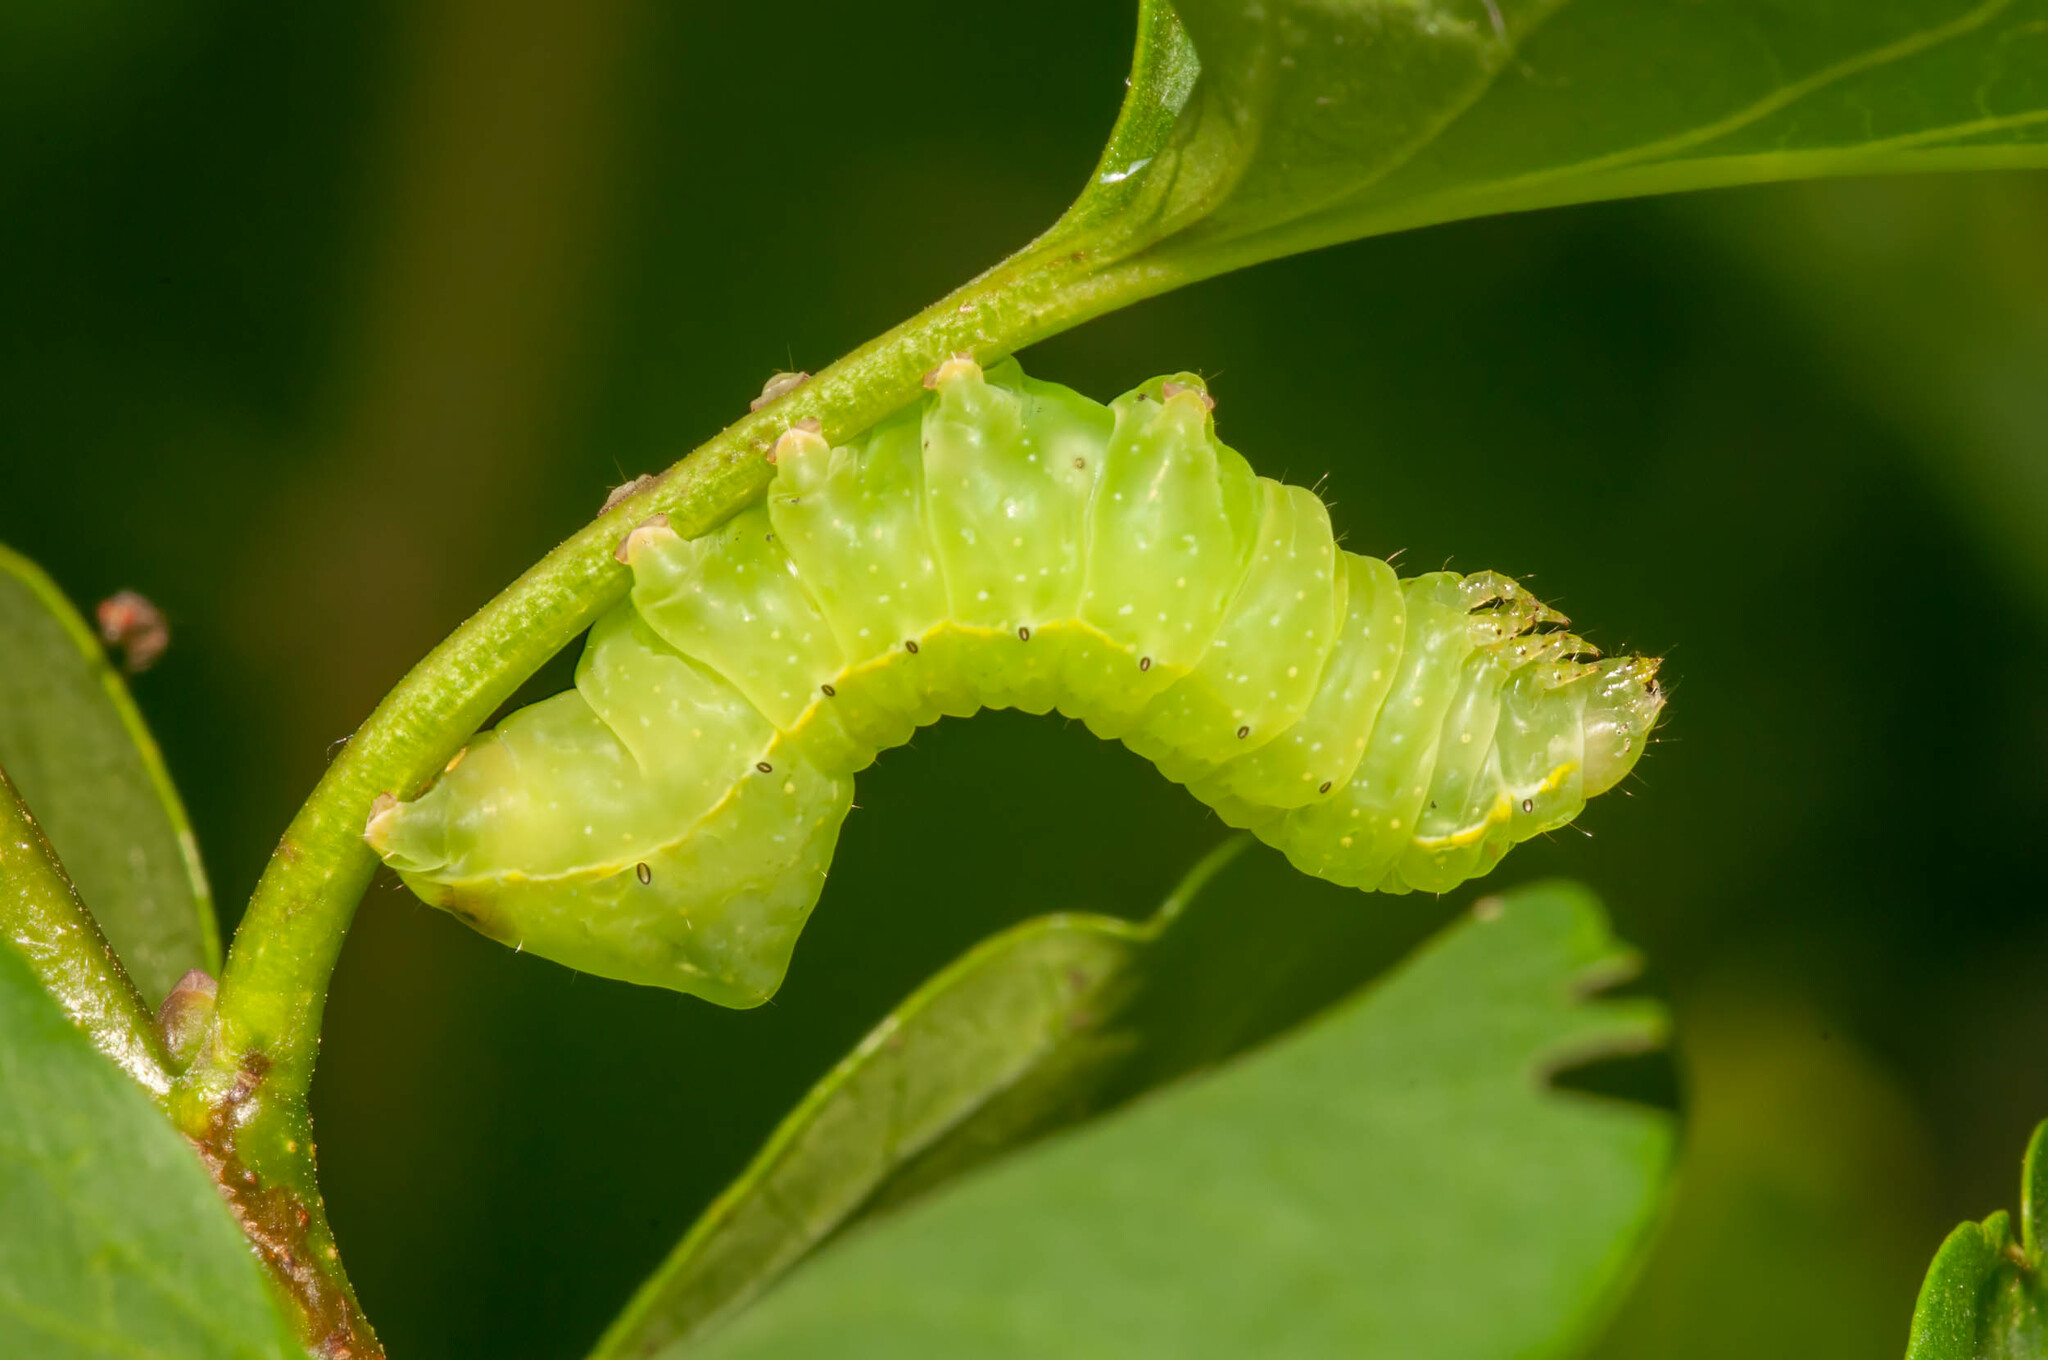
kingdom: Animalia
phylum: Arthropoda
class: Insecta
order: Lepidoptera
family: Noctuidae
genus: Amphipyra
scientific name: Amphipyra pyramidoides
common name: American copper underwing
